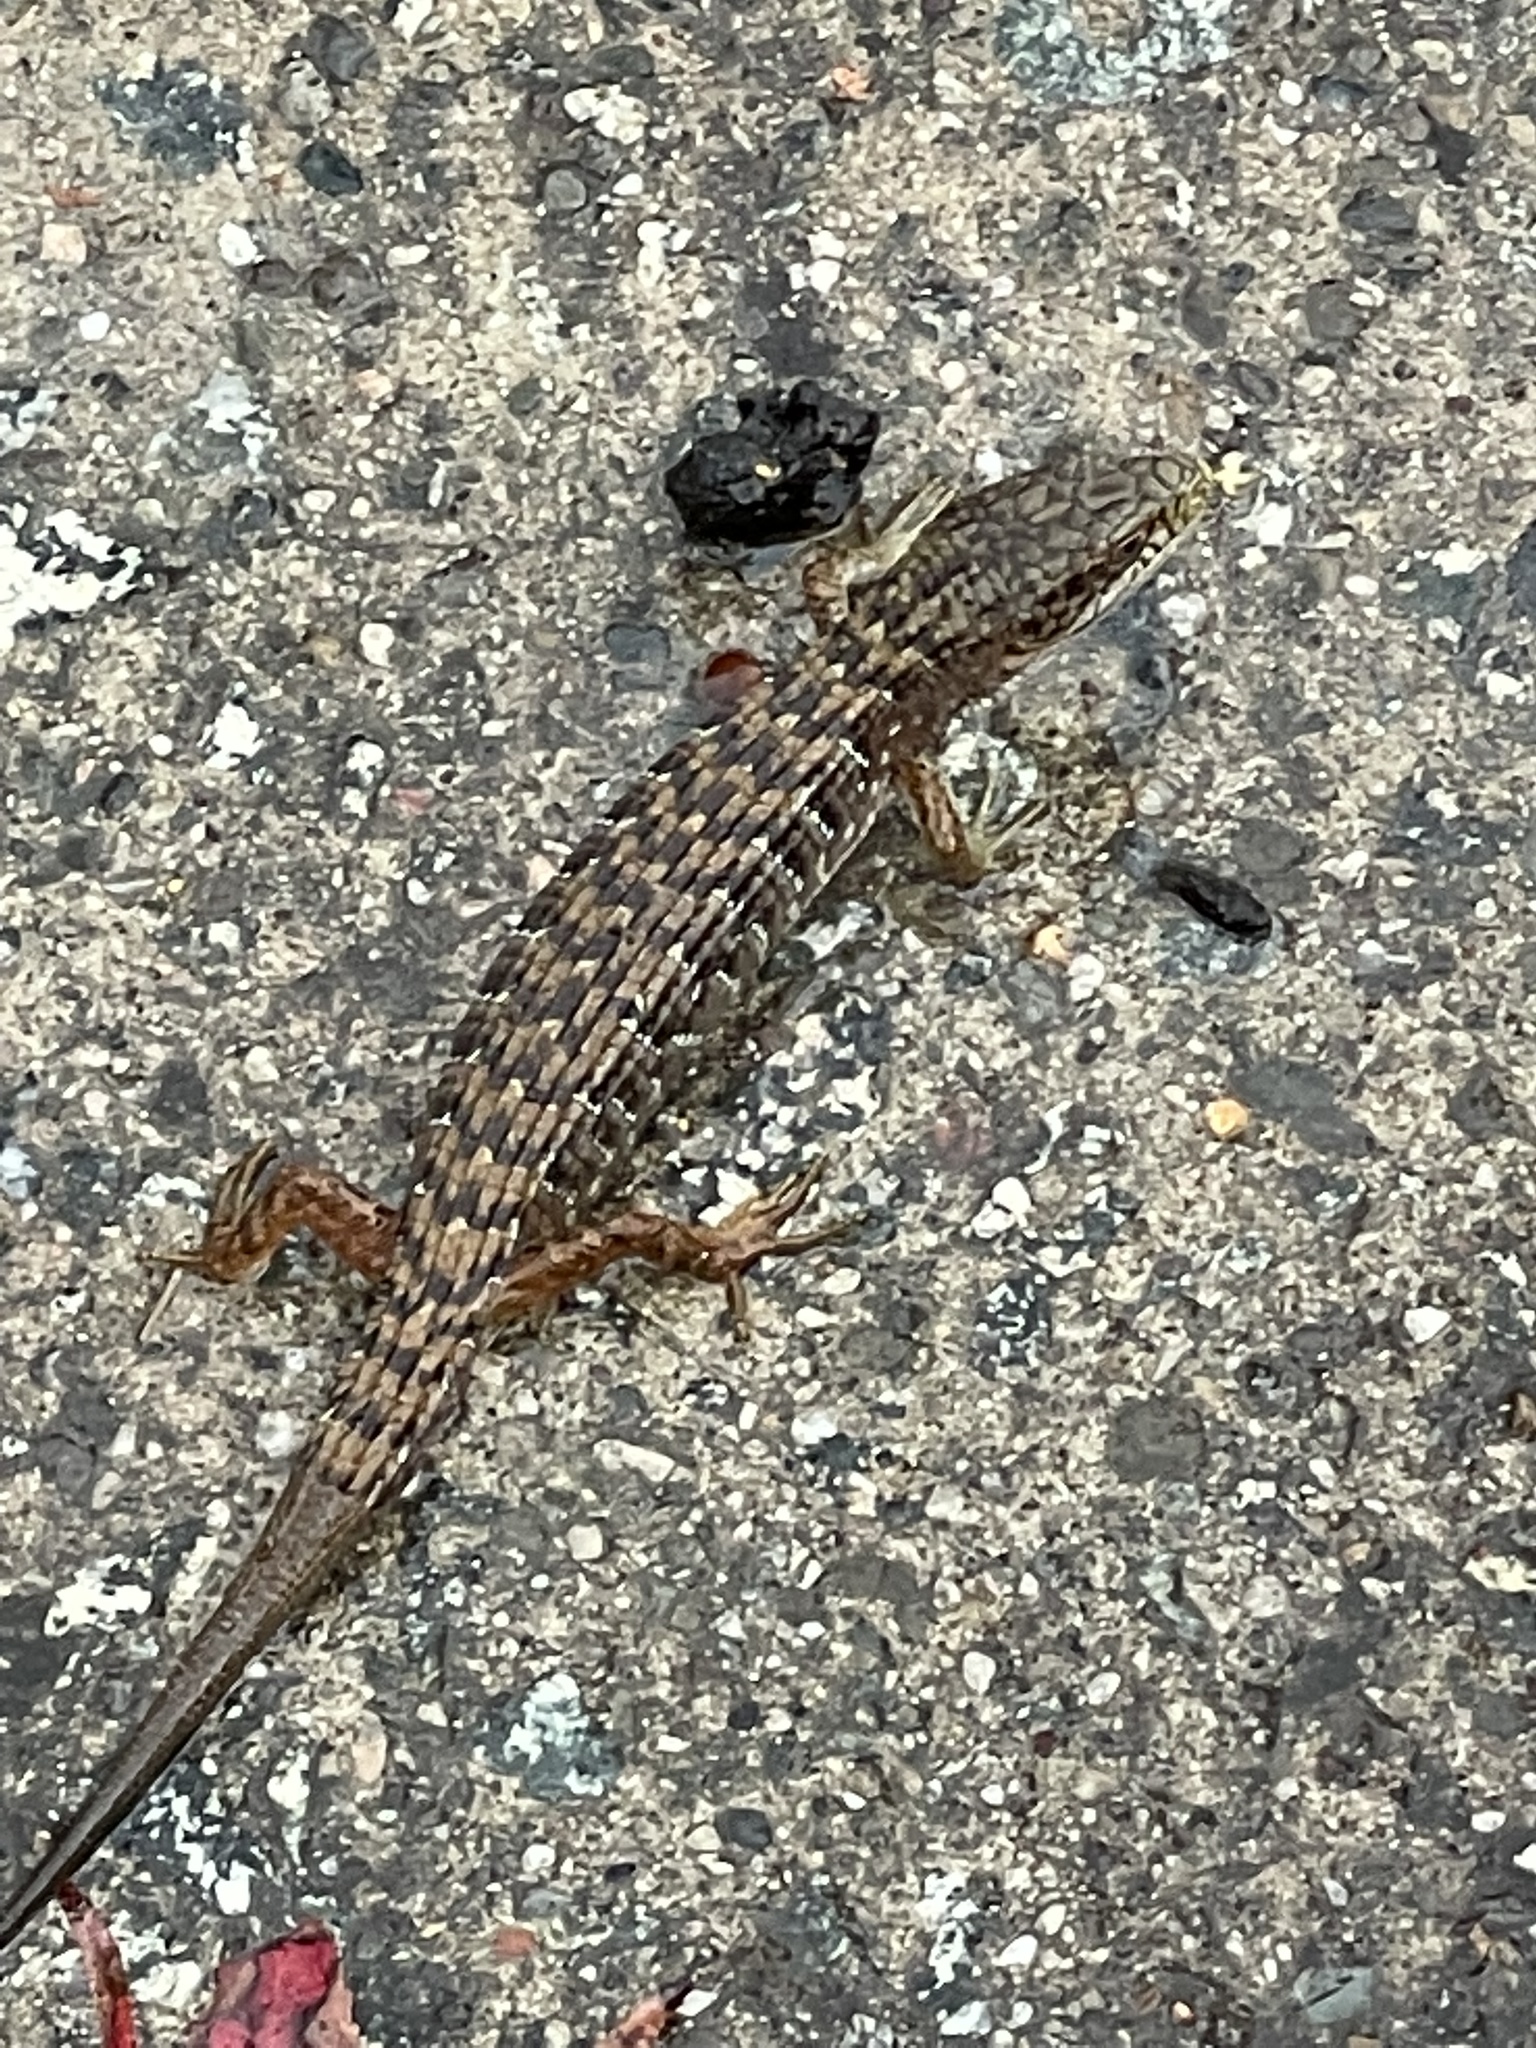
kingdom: Animalia
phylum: Chordata
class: Squamata
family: Anguidae
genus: Elgaria
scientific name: Elgaria multicarinata
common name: Southern alligator lizard
